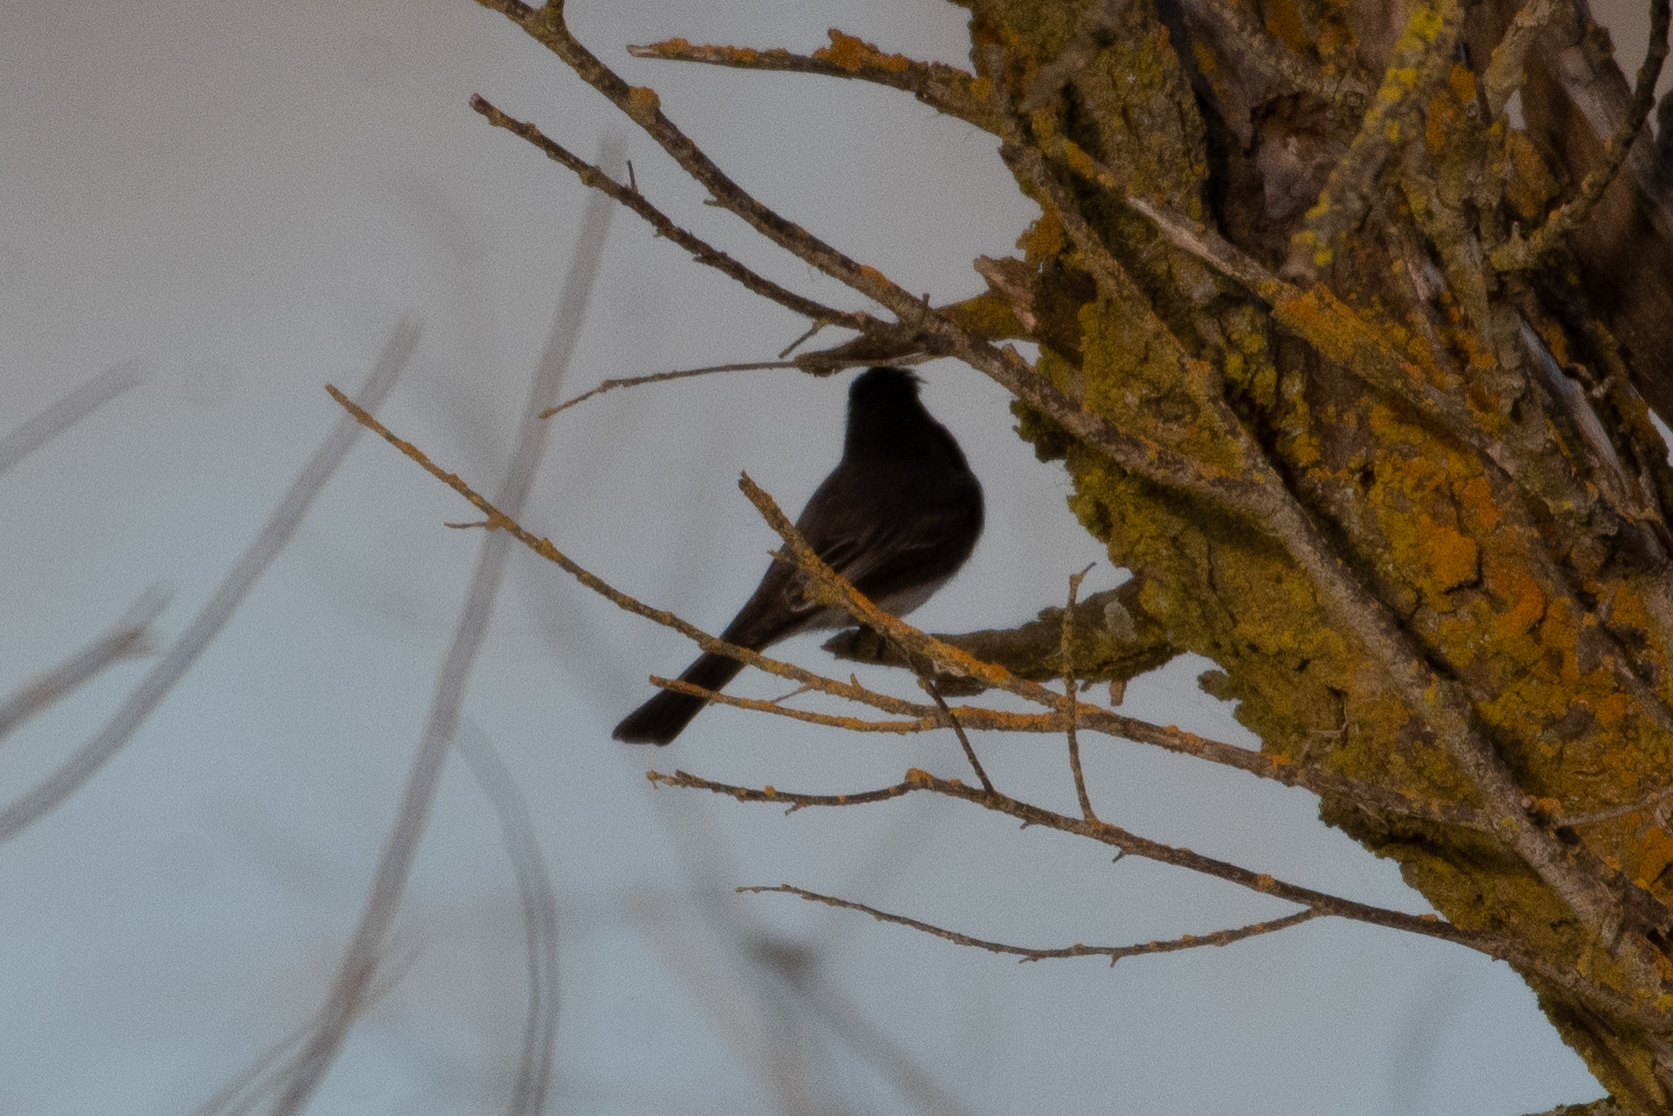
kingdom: Animalia
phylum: Chordata
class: Aves
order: Passeriformes
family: Tyrannidae
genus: Sayornis
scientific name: Sayornis nigricans
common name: Black phoebe
